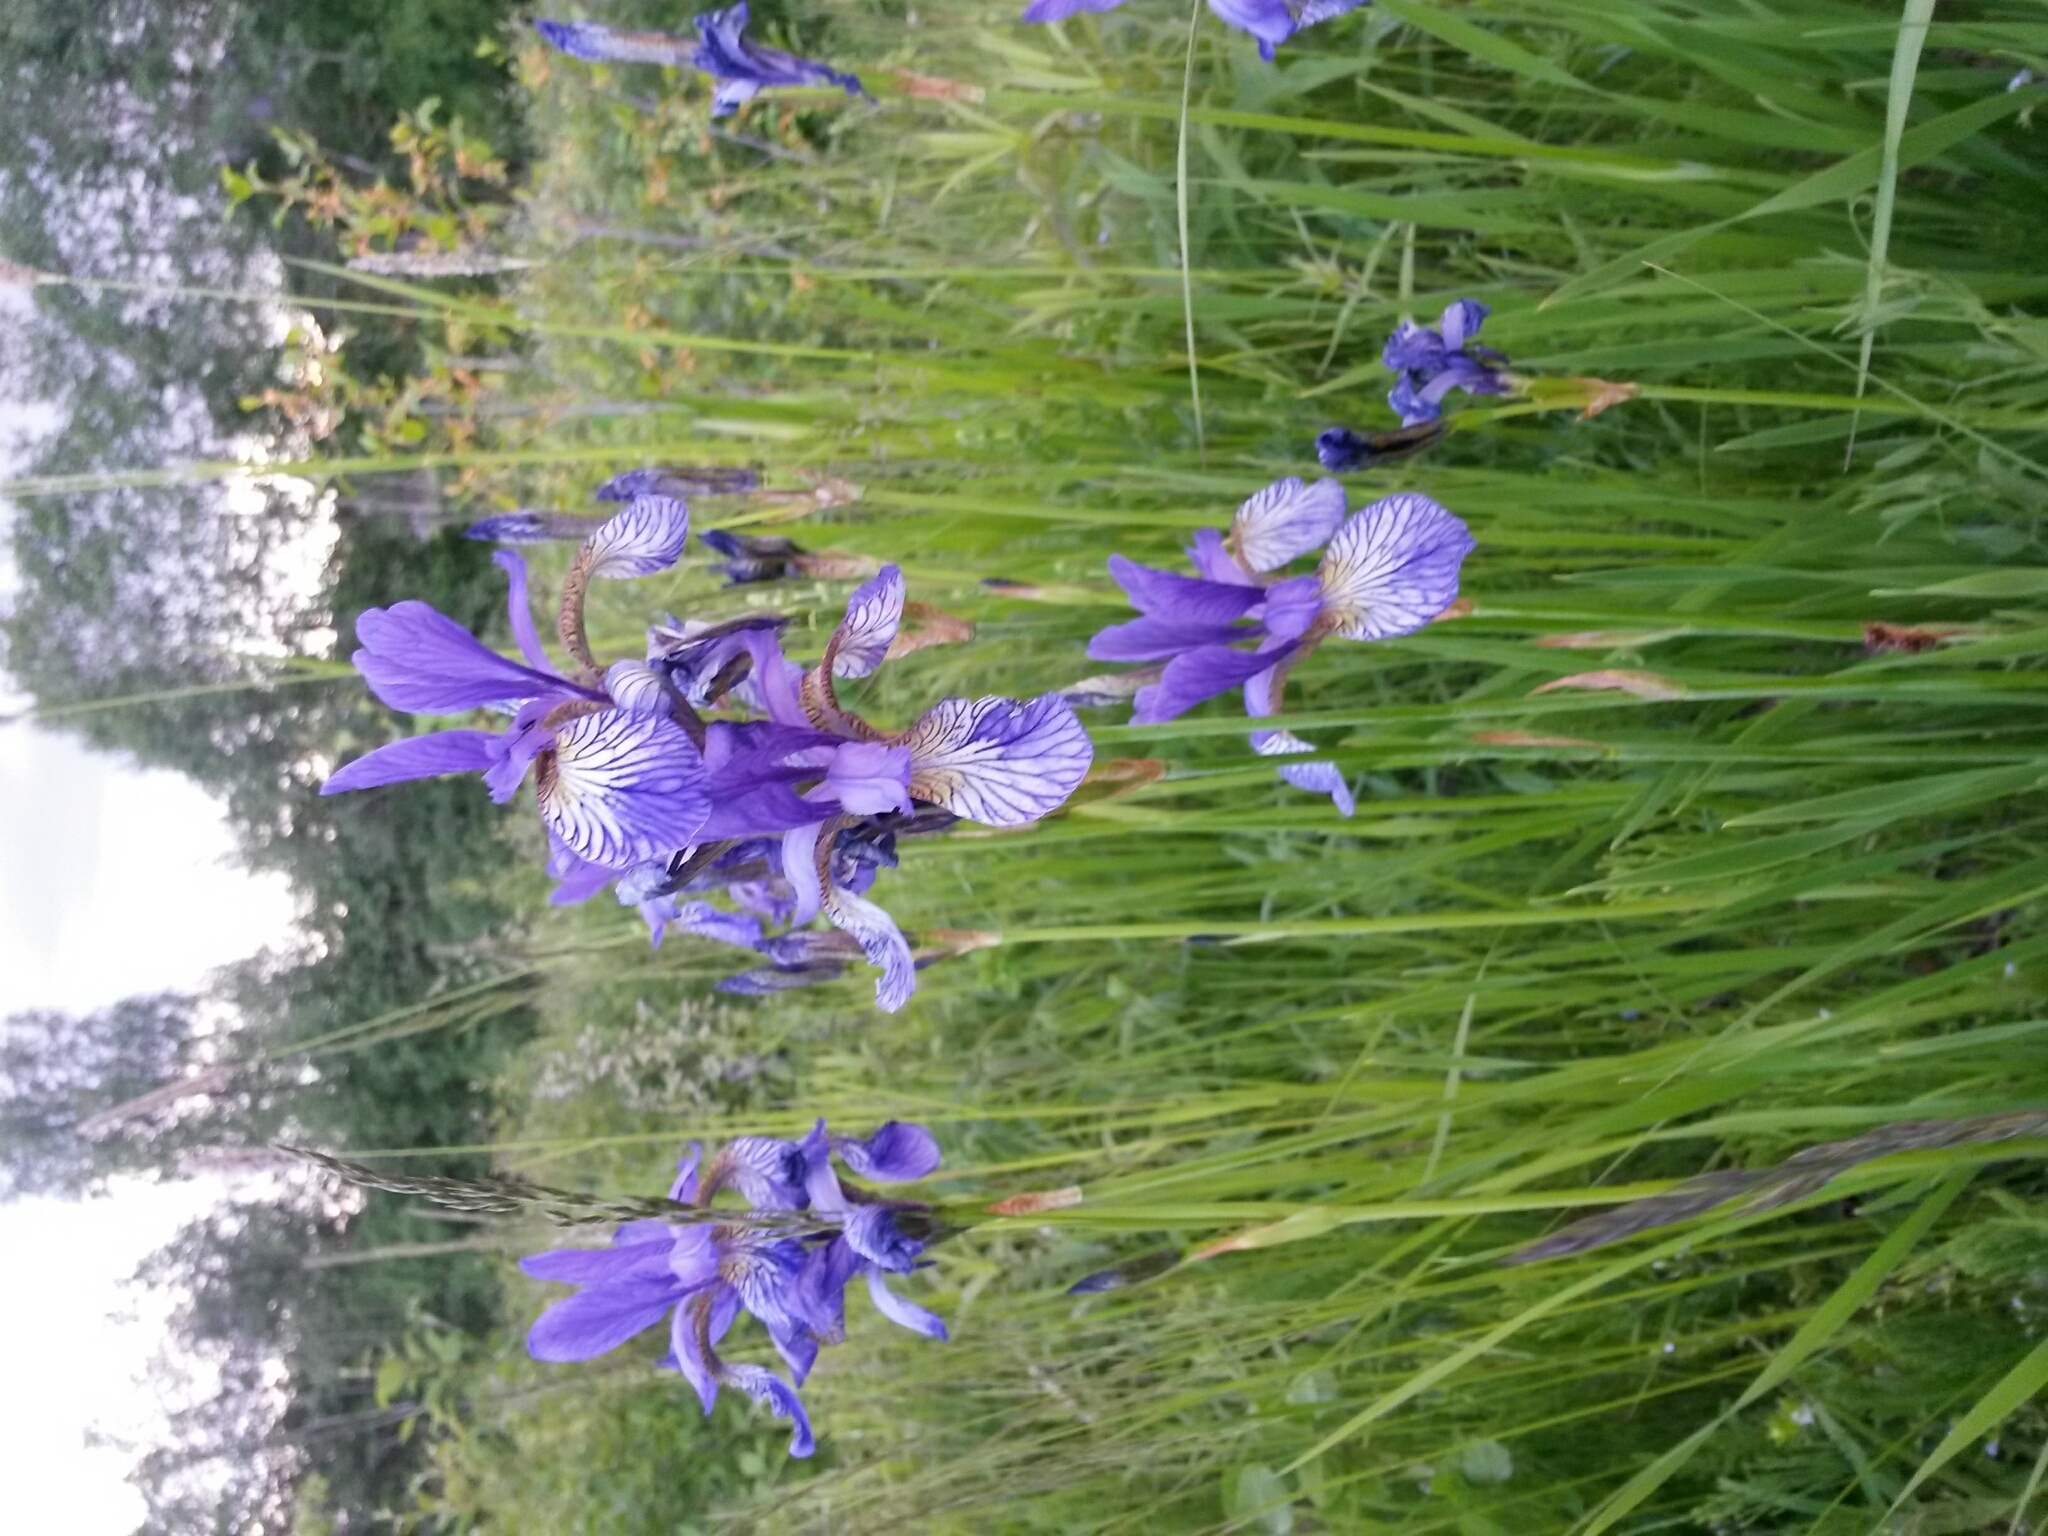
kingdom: Plantae
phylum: Tracheophyta
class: Liliopsida
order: Asparagales
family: Iridaceae
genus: Iris
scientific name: Iris sibirica
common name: Siberian iris
